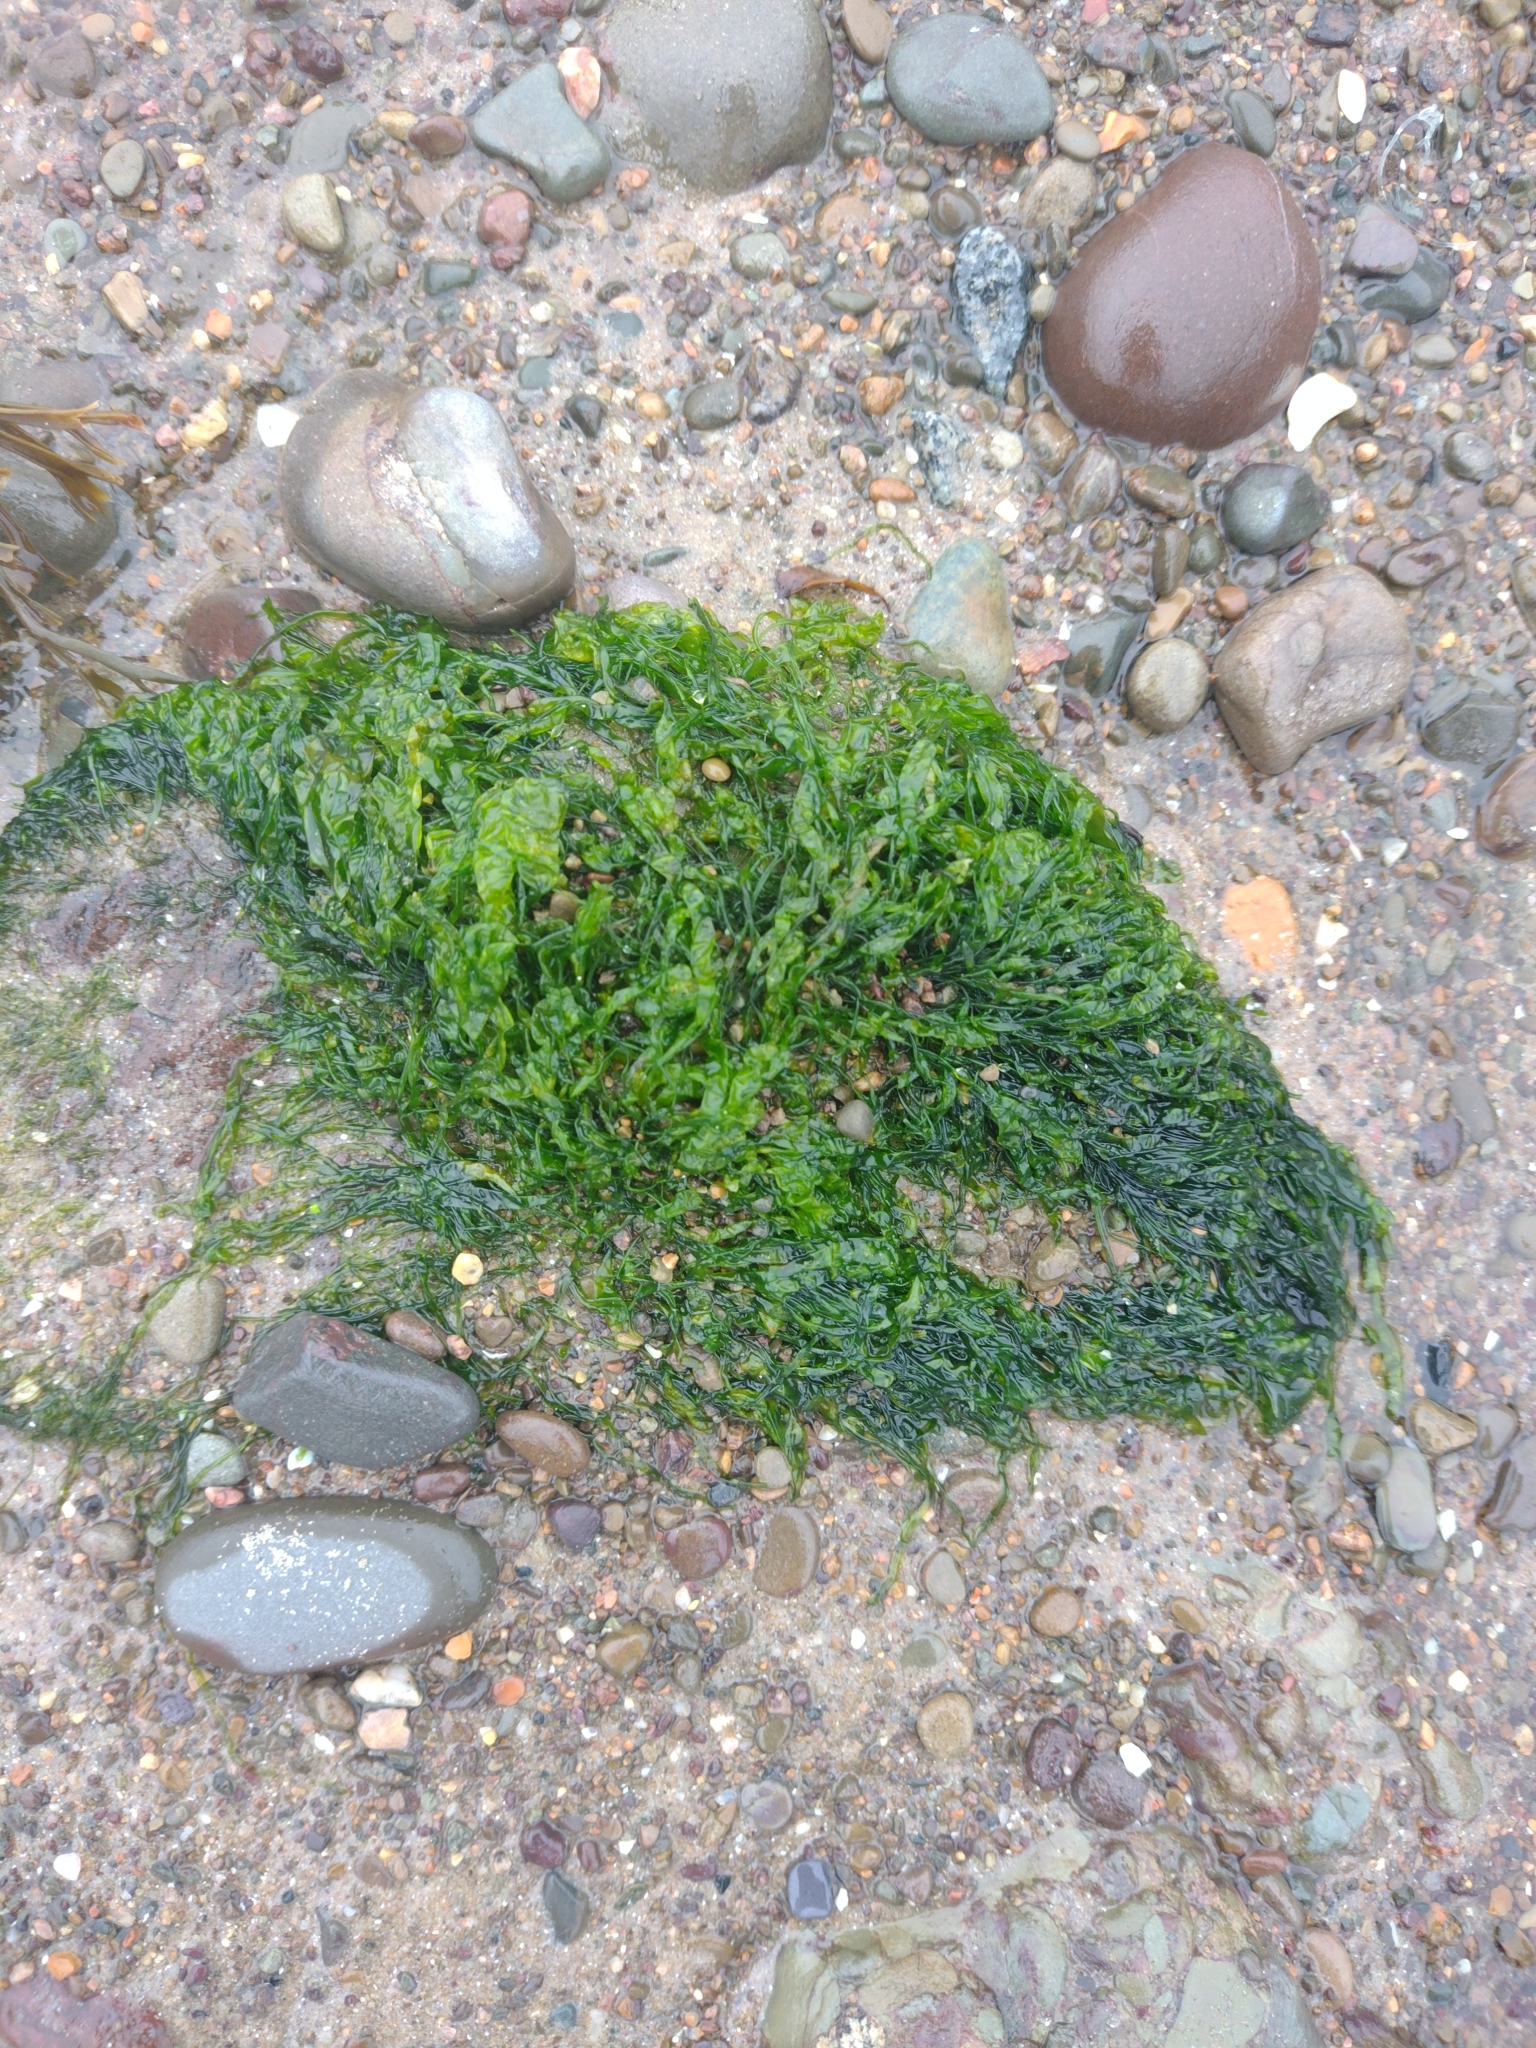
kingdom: Plantae
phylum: Chlorophyta
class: Ulvophyceae
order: Ulvales
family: Ulvaceae
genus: Ulva
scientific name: Ulva intestinalis
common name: Gut weed
